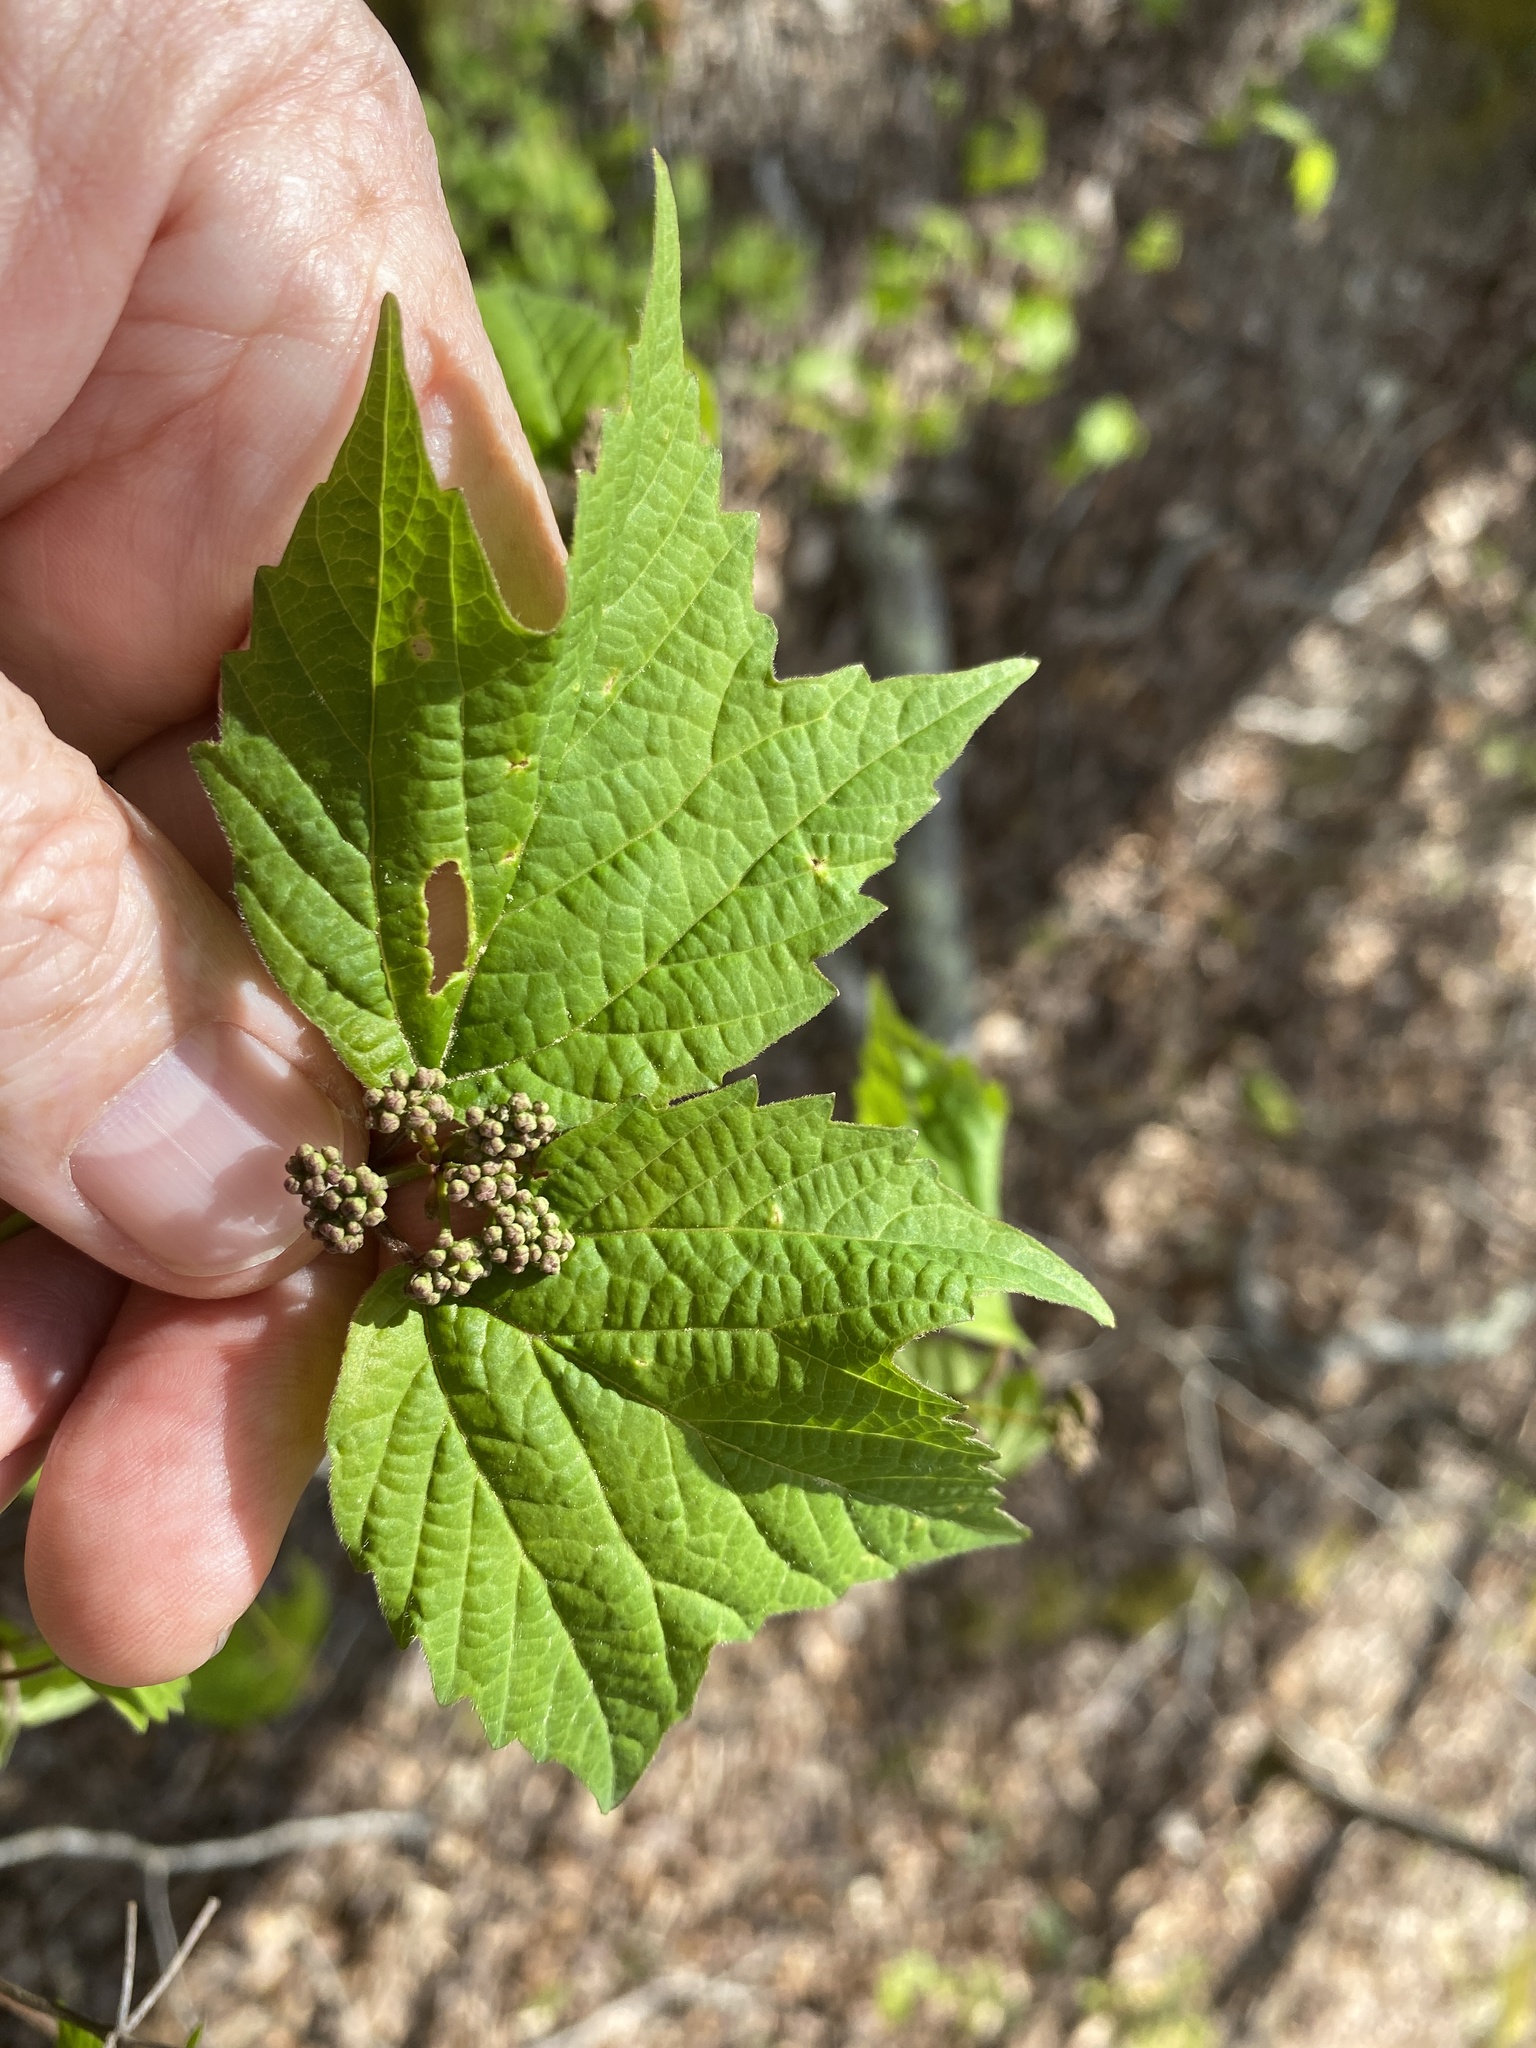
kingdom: Plantae
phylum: Tracheophyta
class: Magnoliopsida
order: Dipsacales
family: Viburnaceae
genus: Viburnum
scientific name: Viburnum acerifolium
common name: Dockmackie
